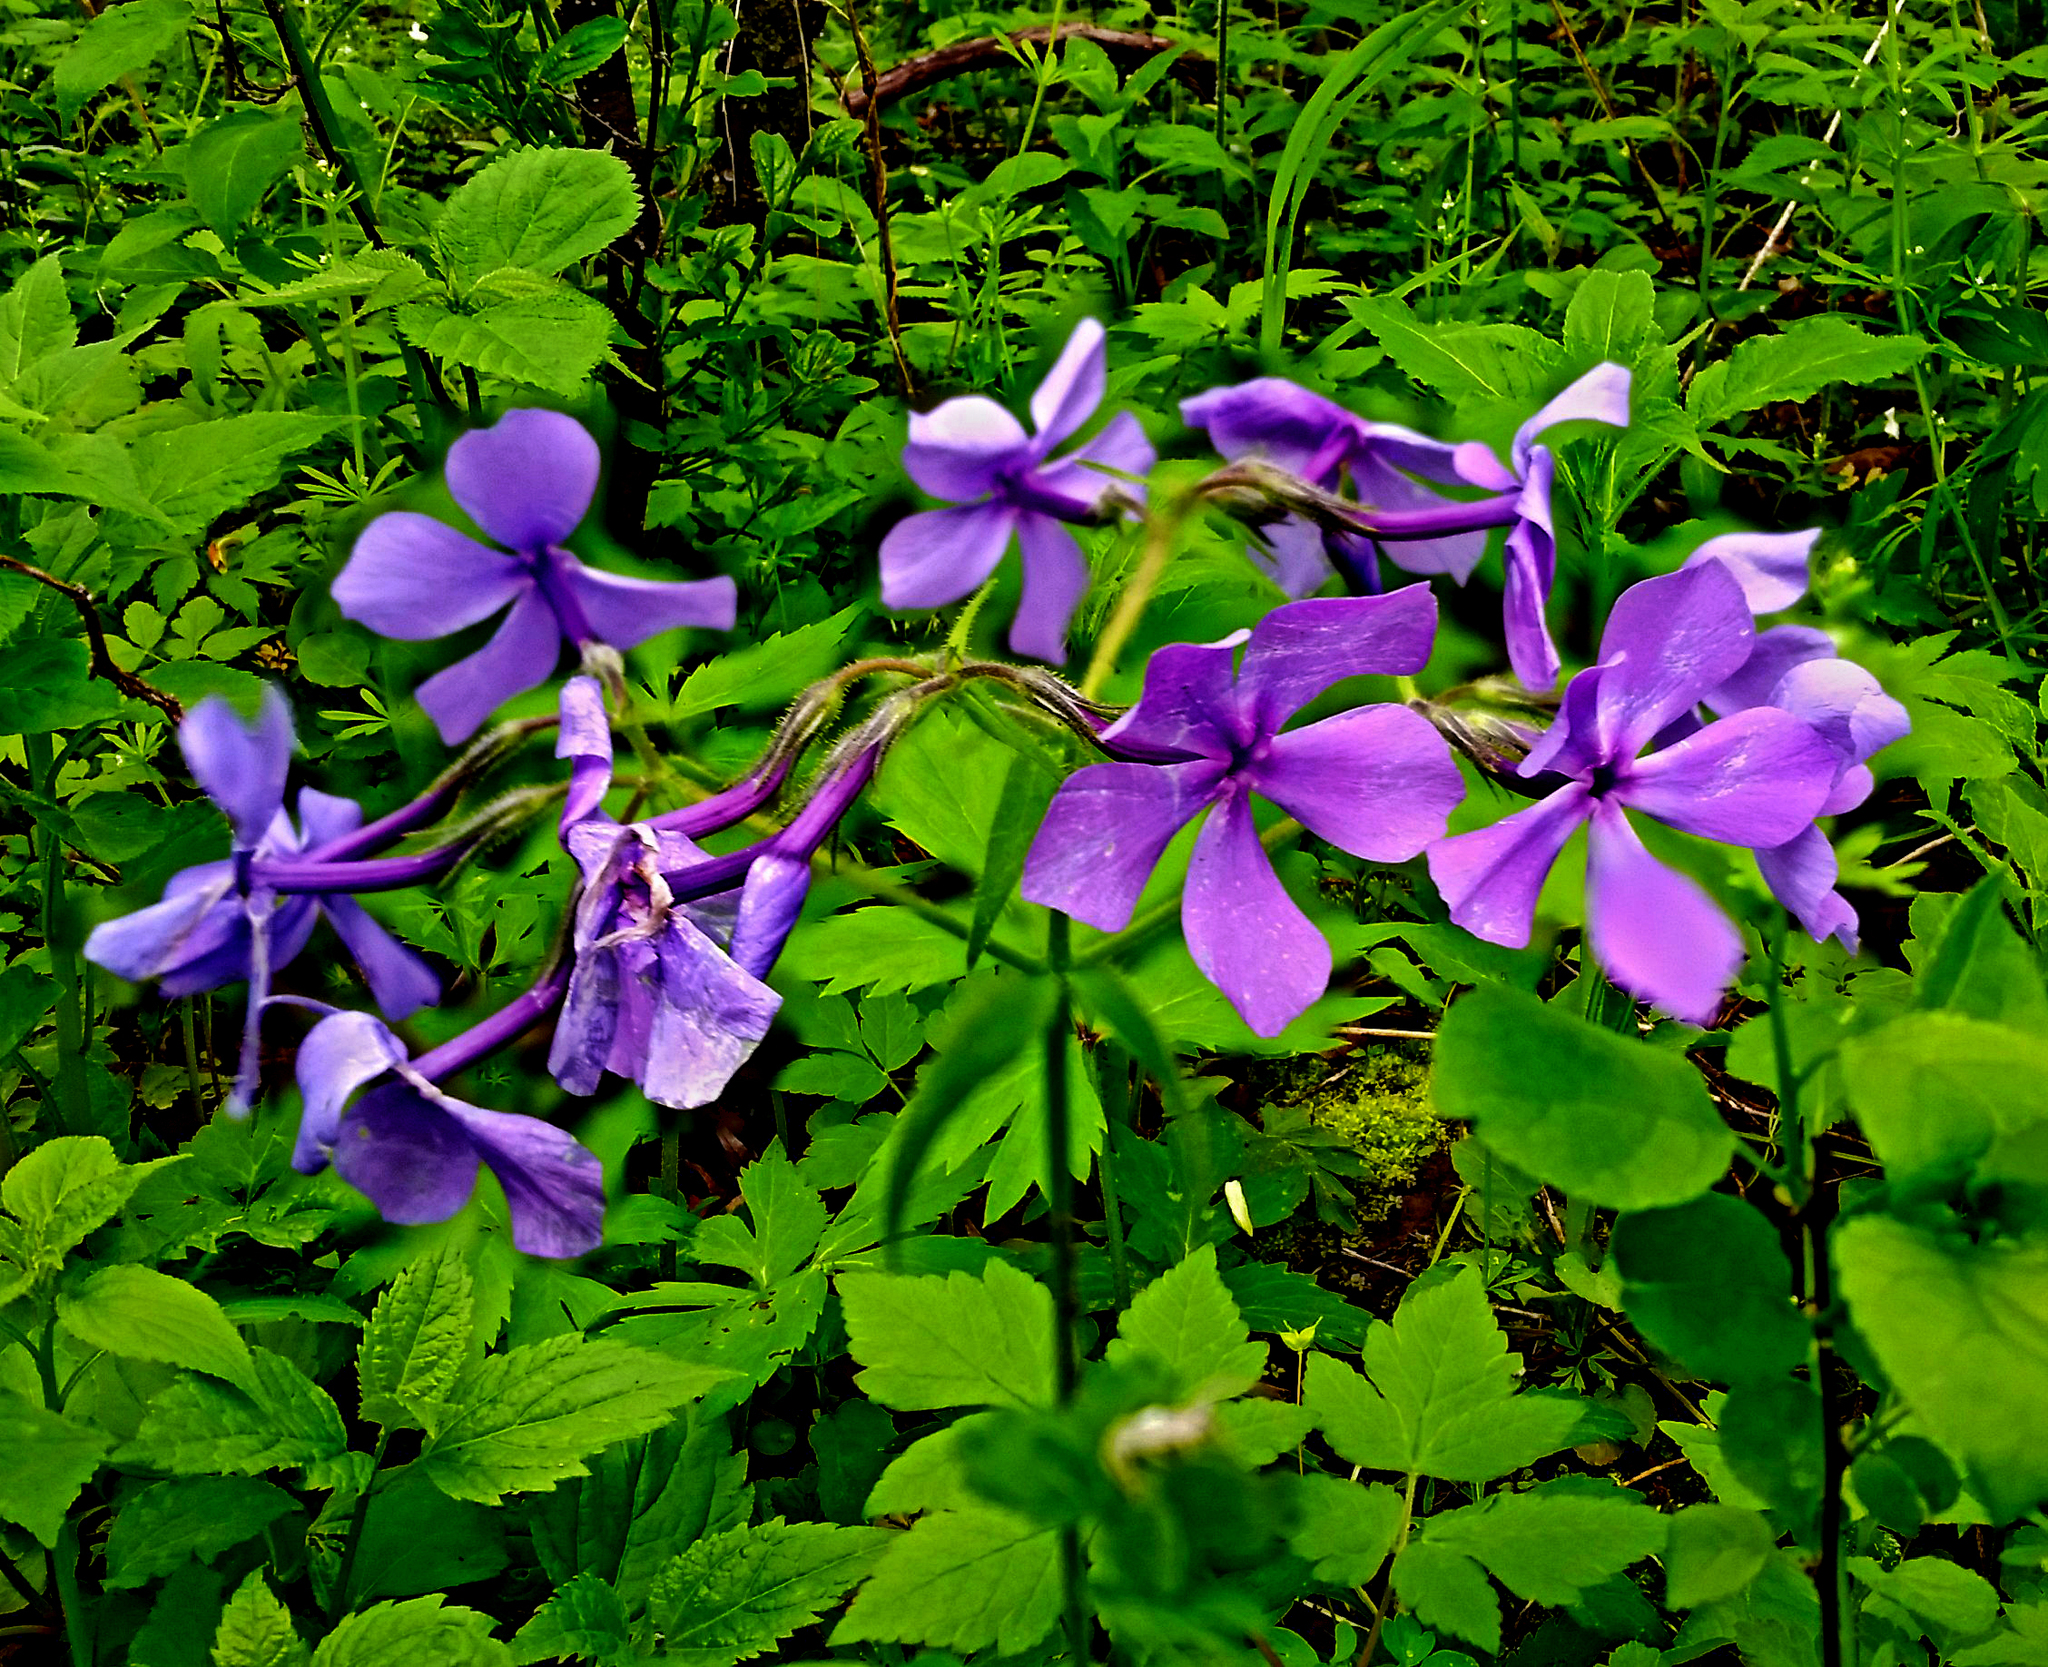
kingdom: Plantae
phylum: Tracheophyta
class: Magnoliopsida
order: Ericales
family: Polemoniaceae
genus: Phlox
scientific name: Phlox divaricata
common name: Blue phlox
